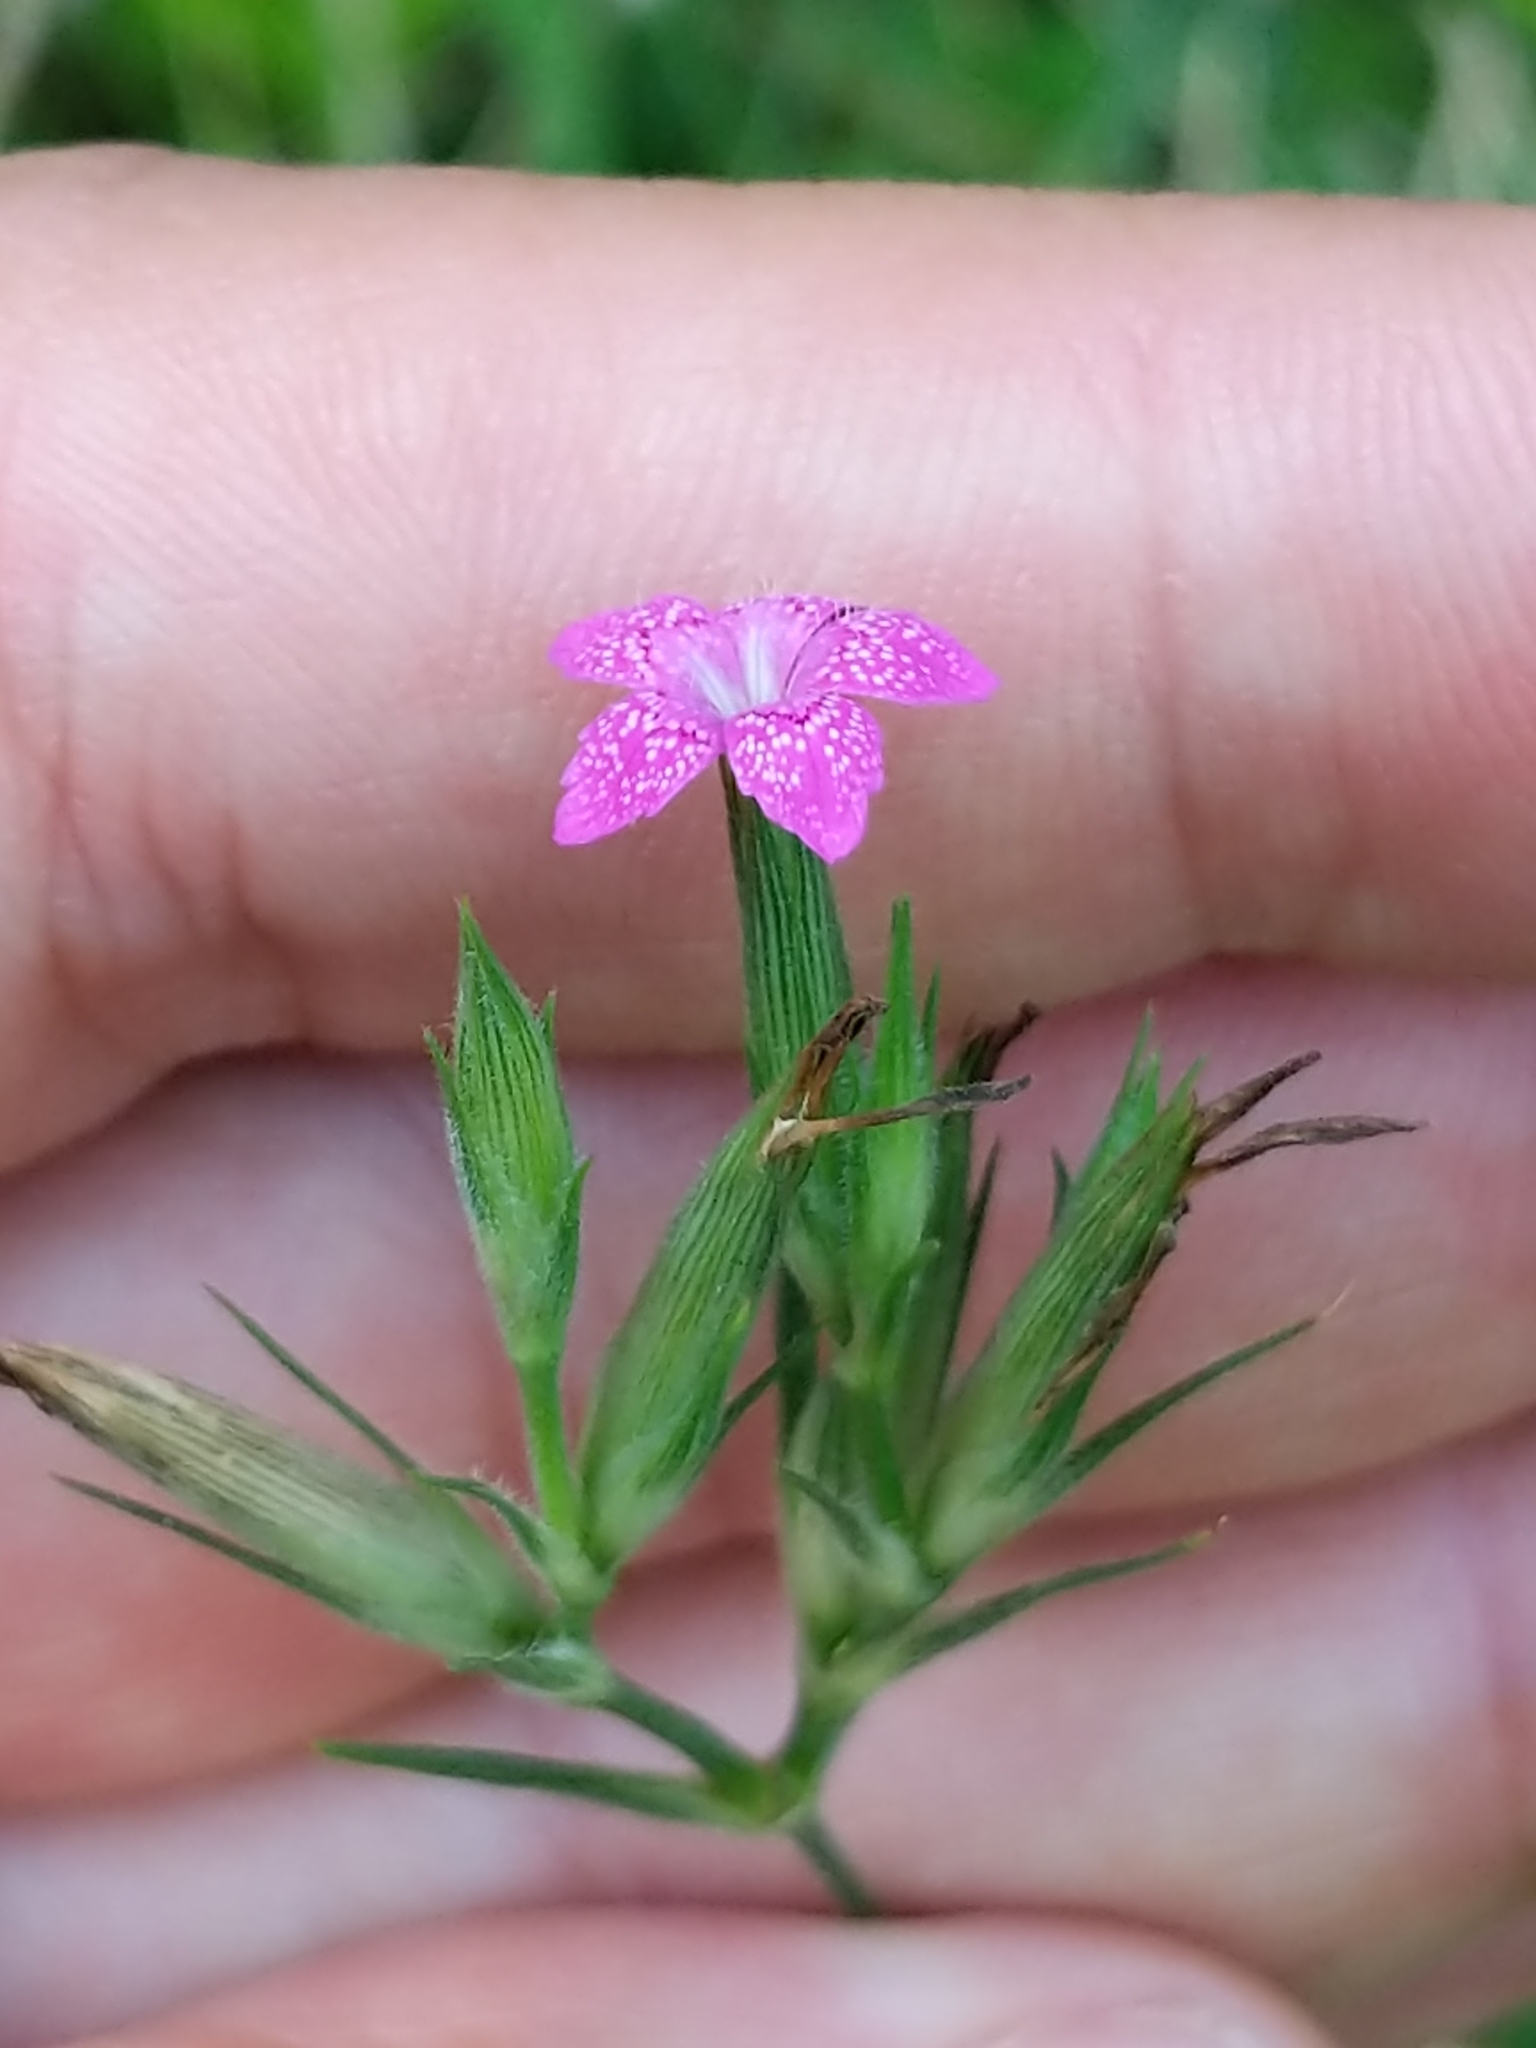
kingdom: Plantae
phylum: Tracheophyta
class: Magnoliopsida
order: Caryophyllales
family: Caryophyllaceae
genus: Dianthus
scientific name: Dianthus armeria
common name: Deptford pink
